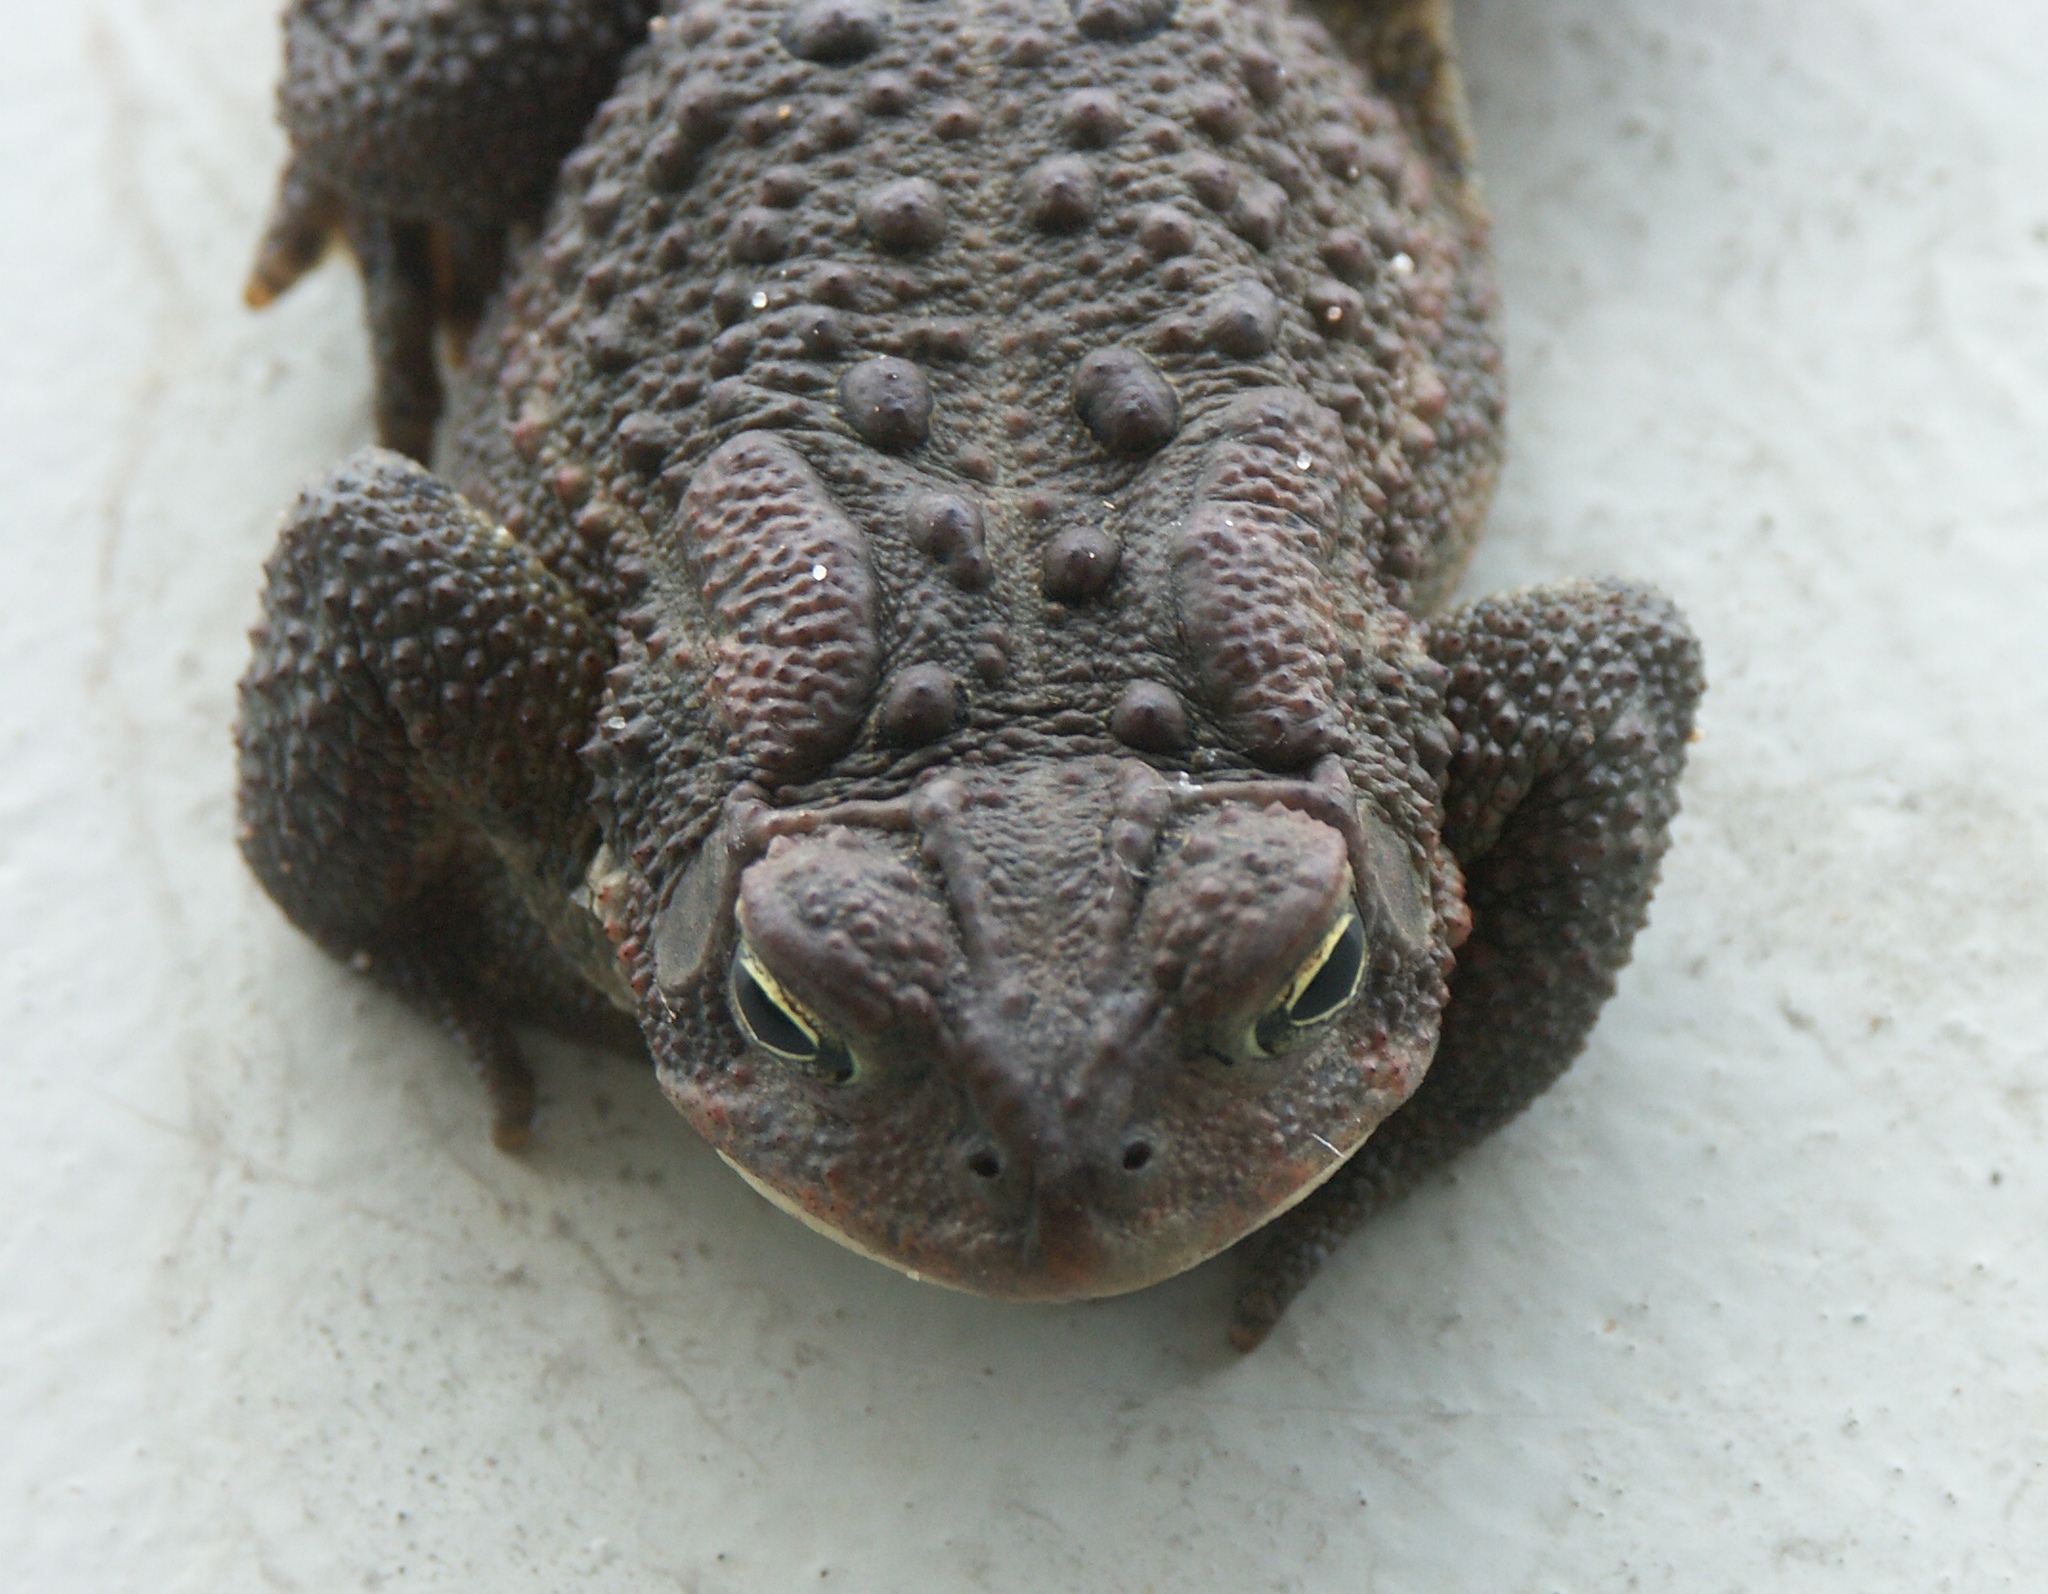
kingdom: Animalia
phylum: Chordata
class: Amphibia
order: Anura
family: Bufonidae
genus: Anaxyrus
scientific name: Anaxyrus americanus
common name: American toad
